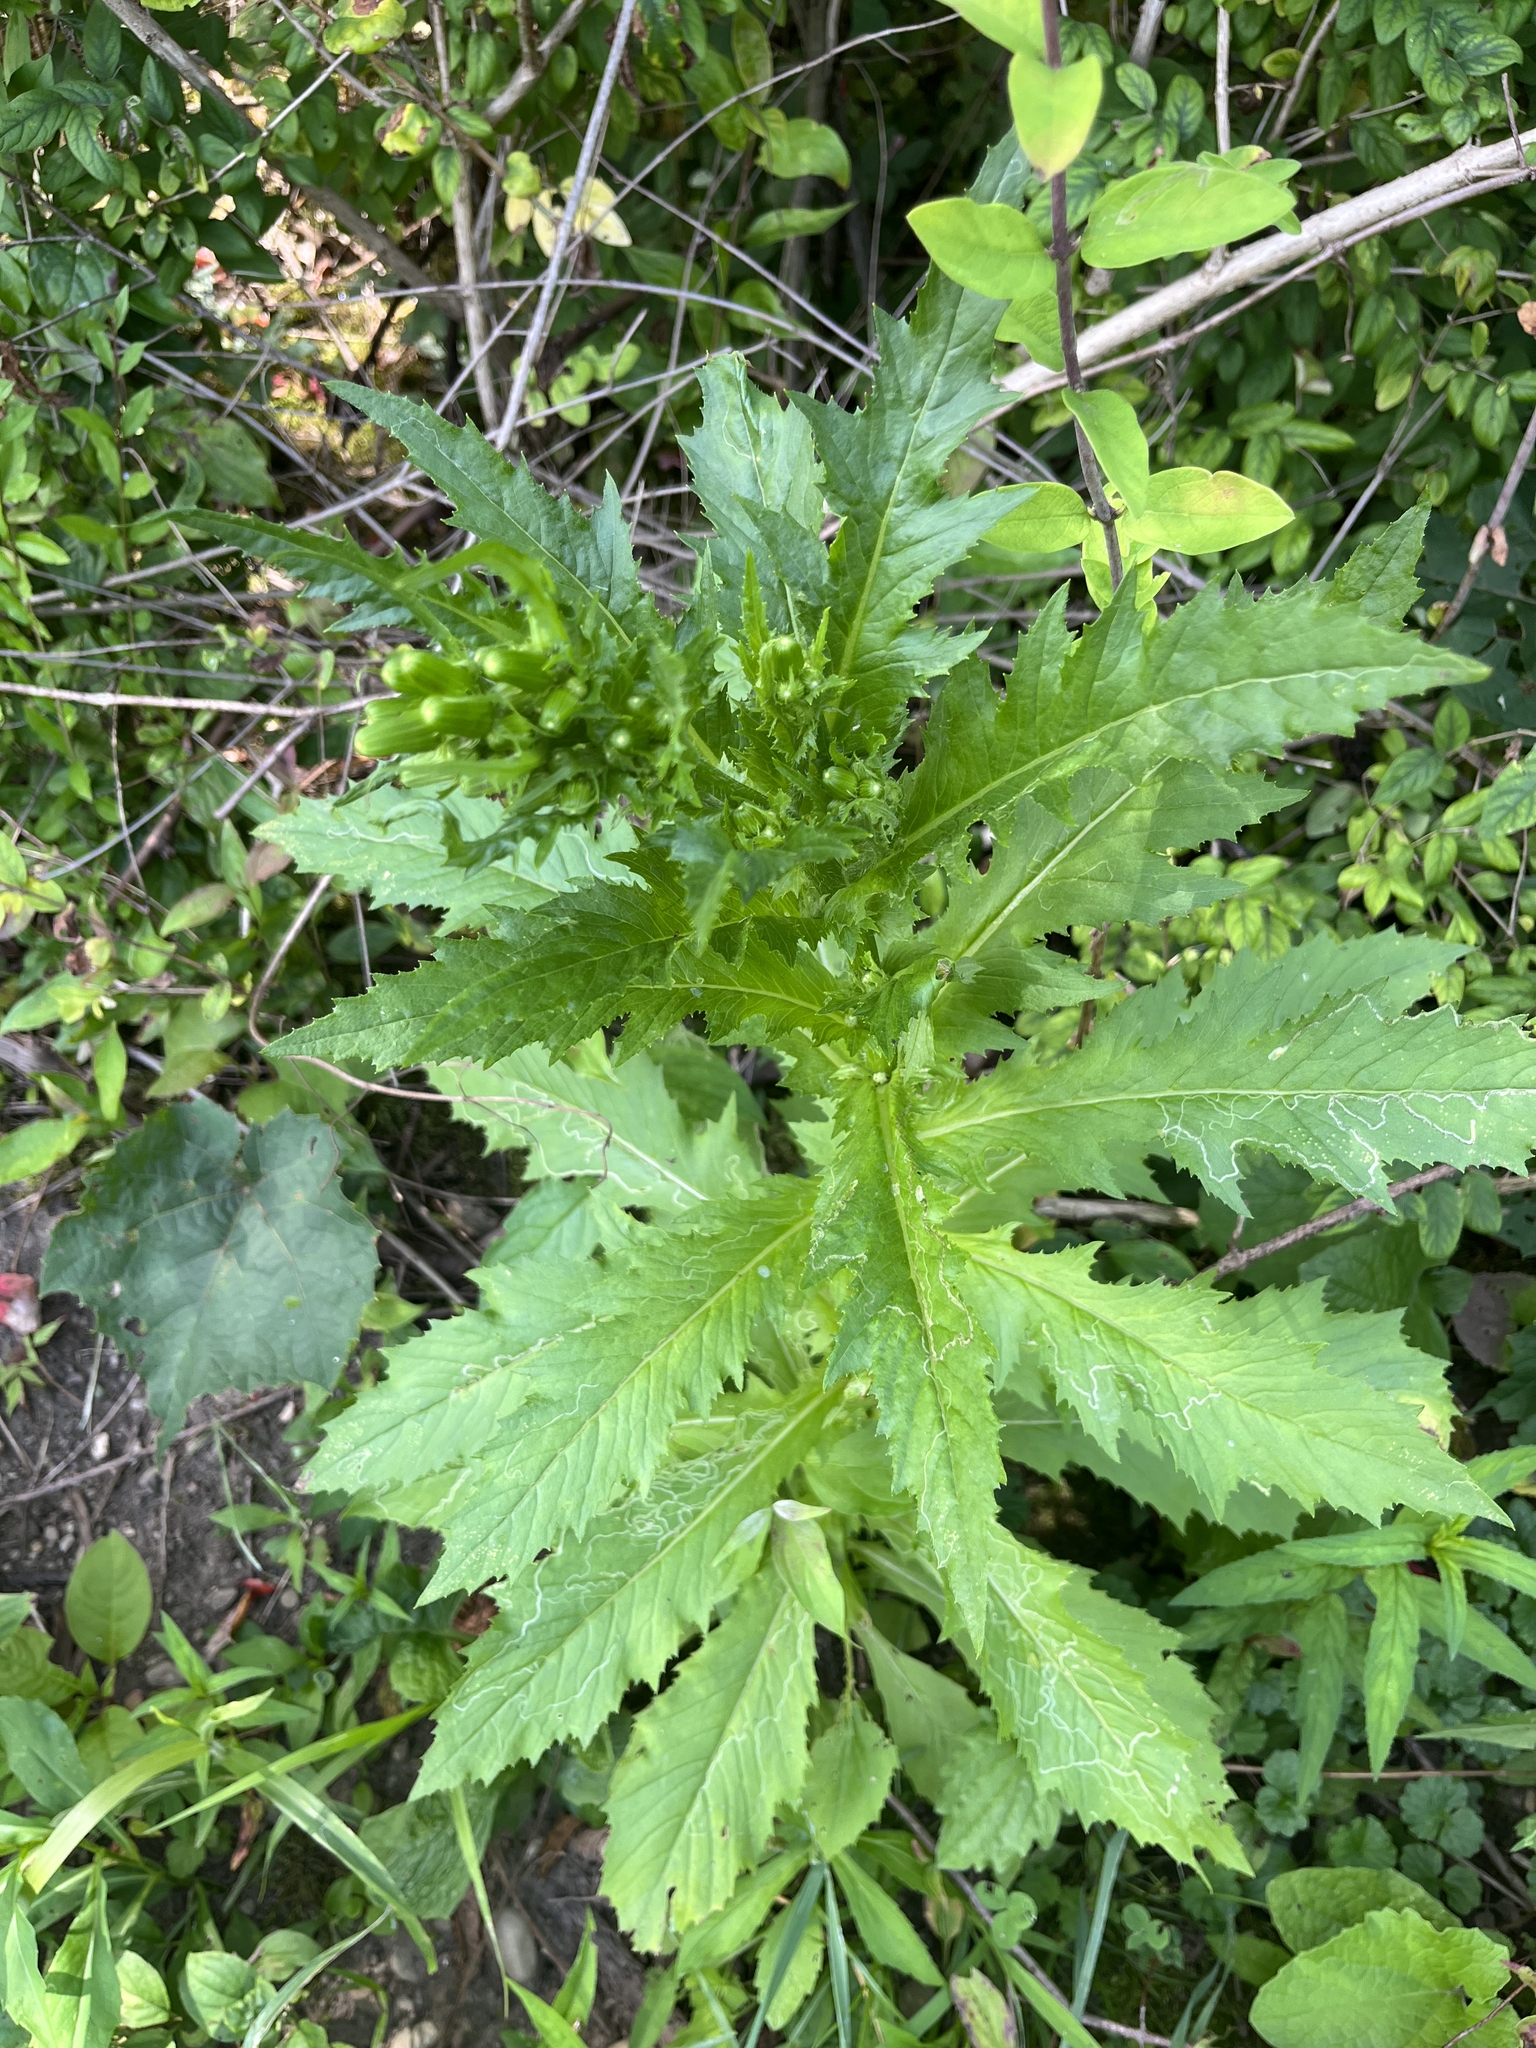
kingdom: Plantae
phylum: Tracheophyta
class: Magnoliopsida
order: Asterales
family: Asteraceae
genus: Erechtites
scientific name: Erechtites hieraciifolius
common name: American burnweed
